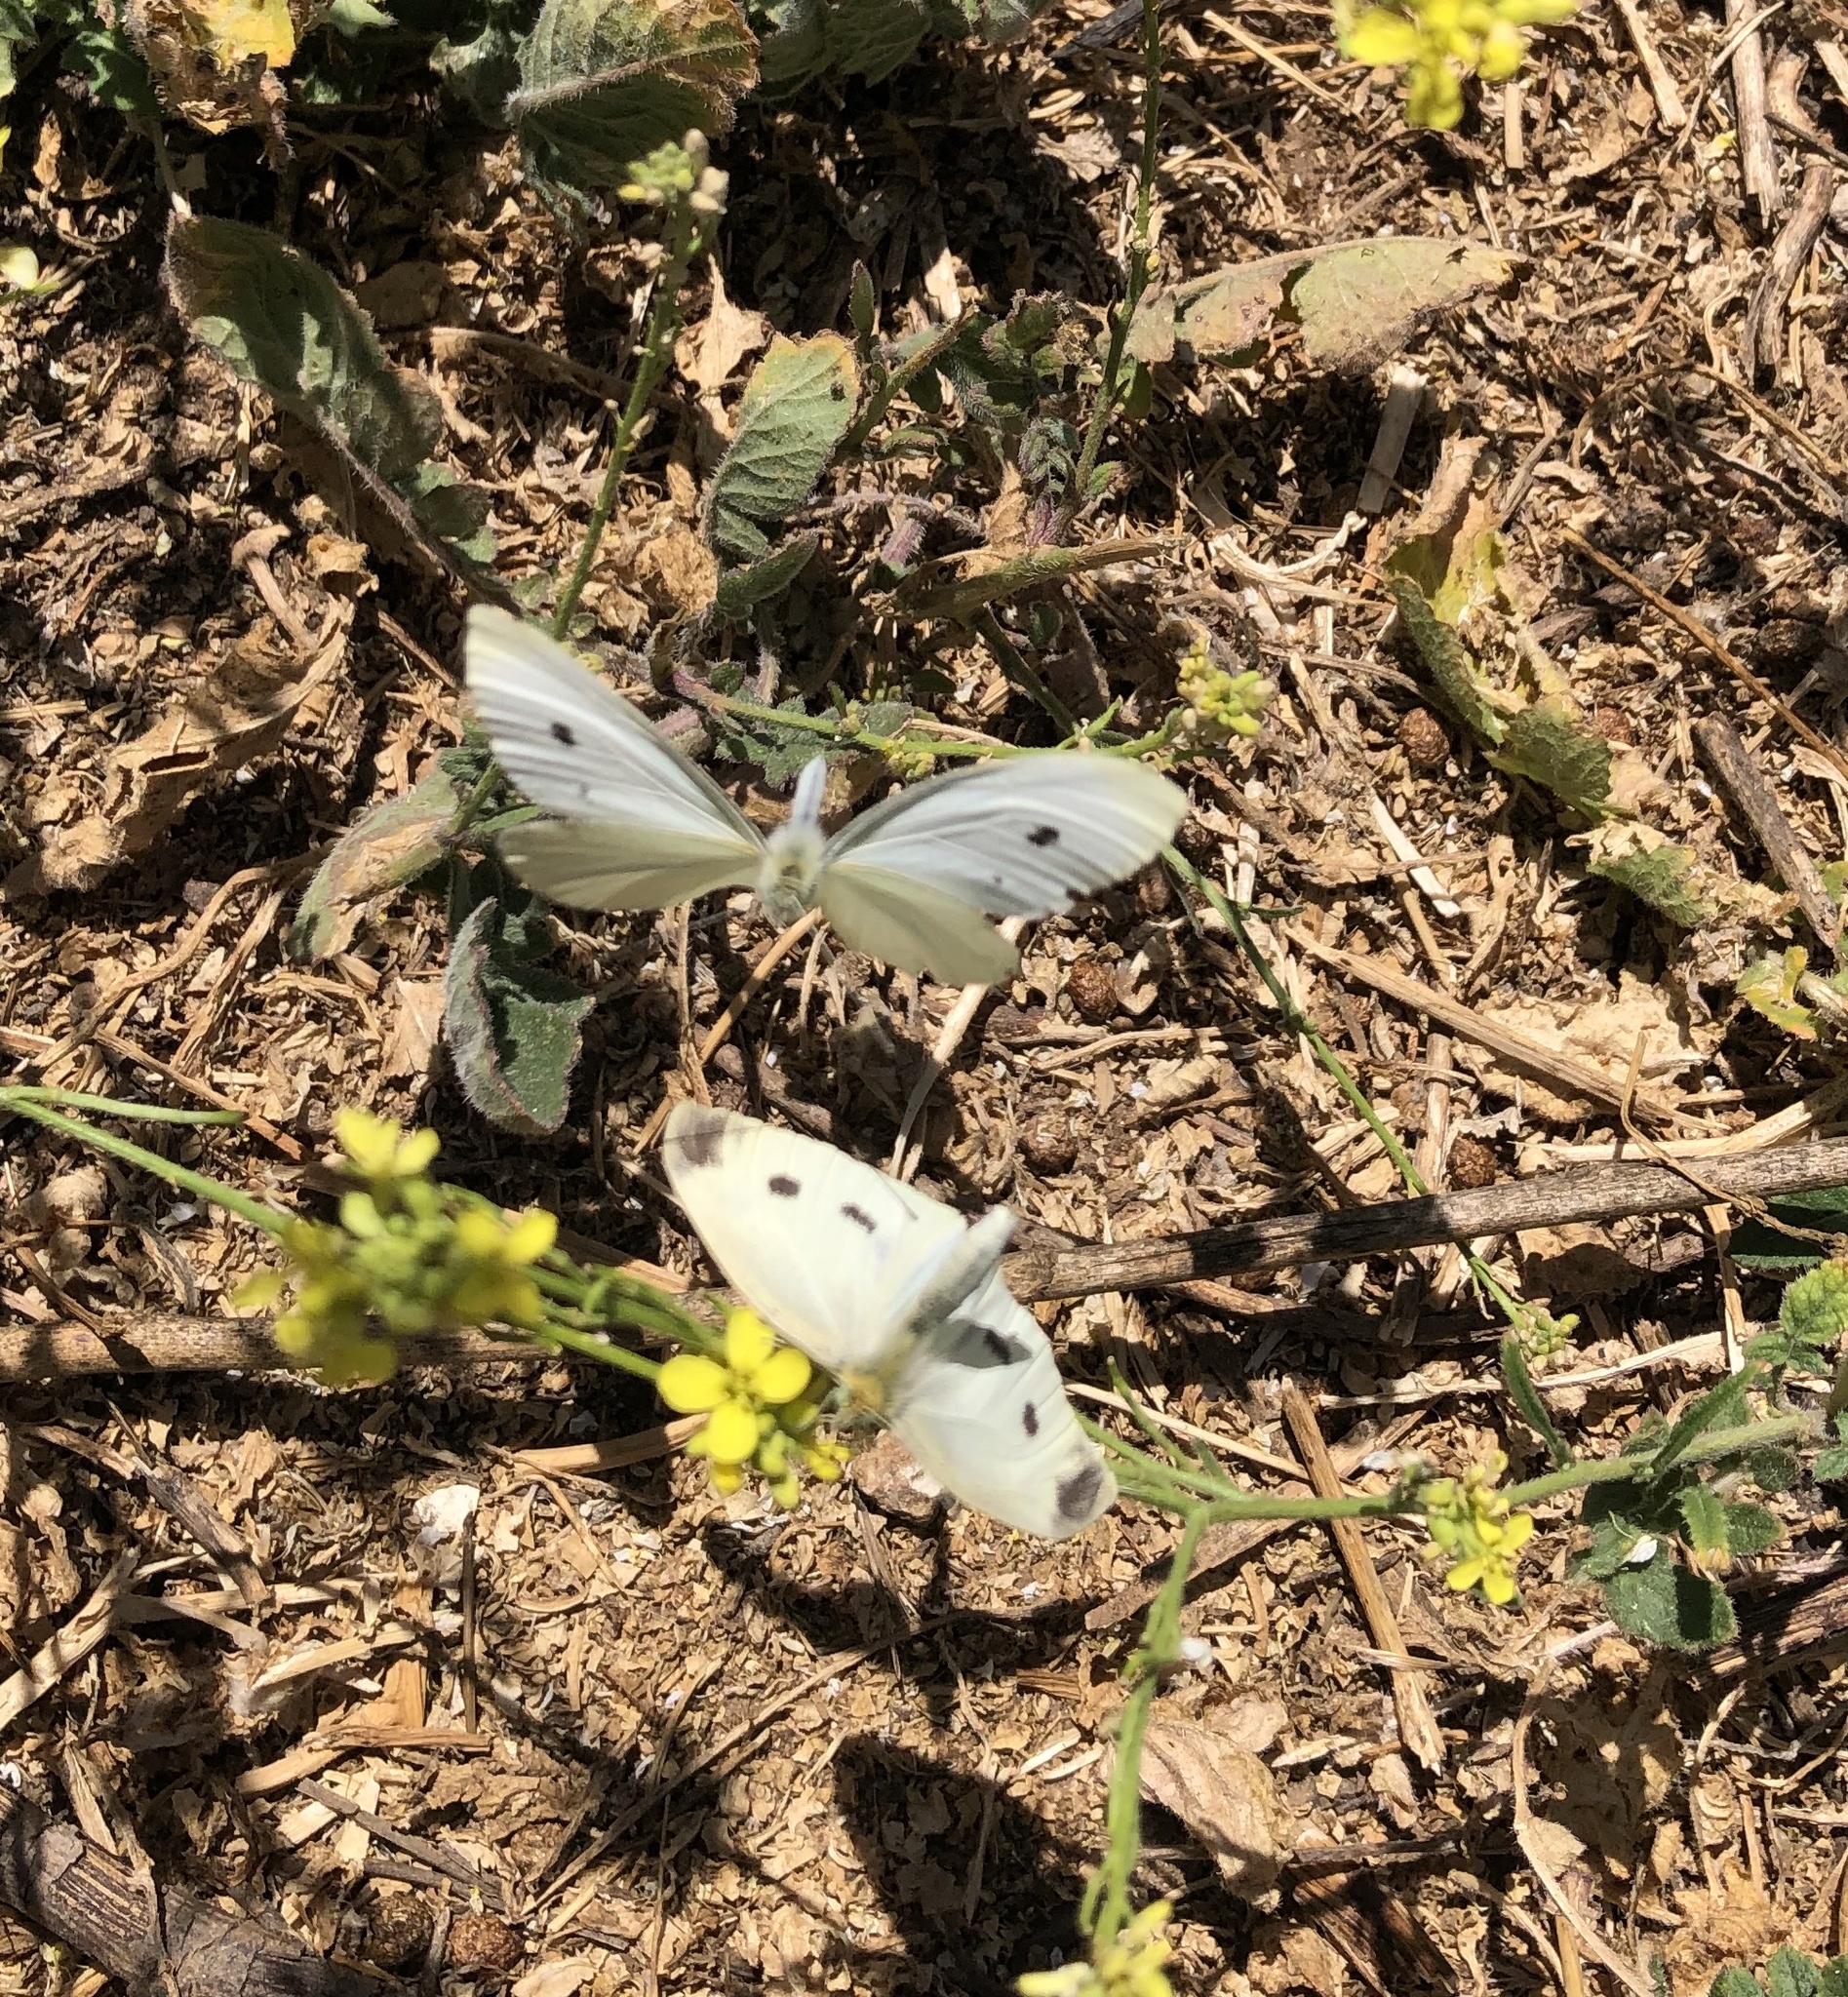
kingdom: Animalia
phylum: Arthropoda
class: Insecta
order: Lepidoptera
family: Pieridae
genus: Pieris
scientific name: Pieris rapae
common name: Small white
